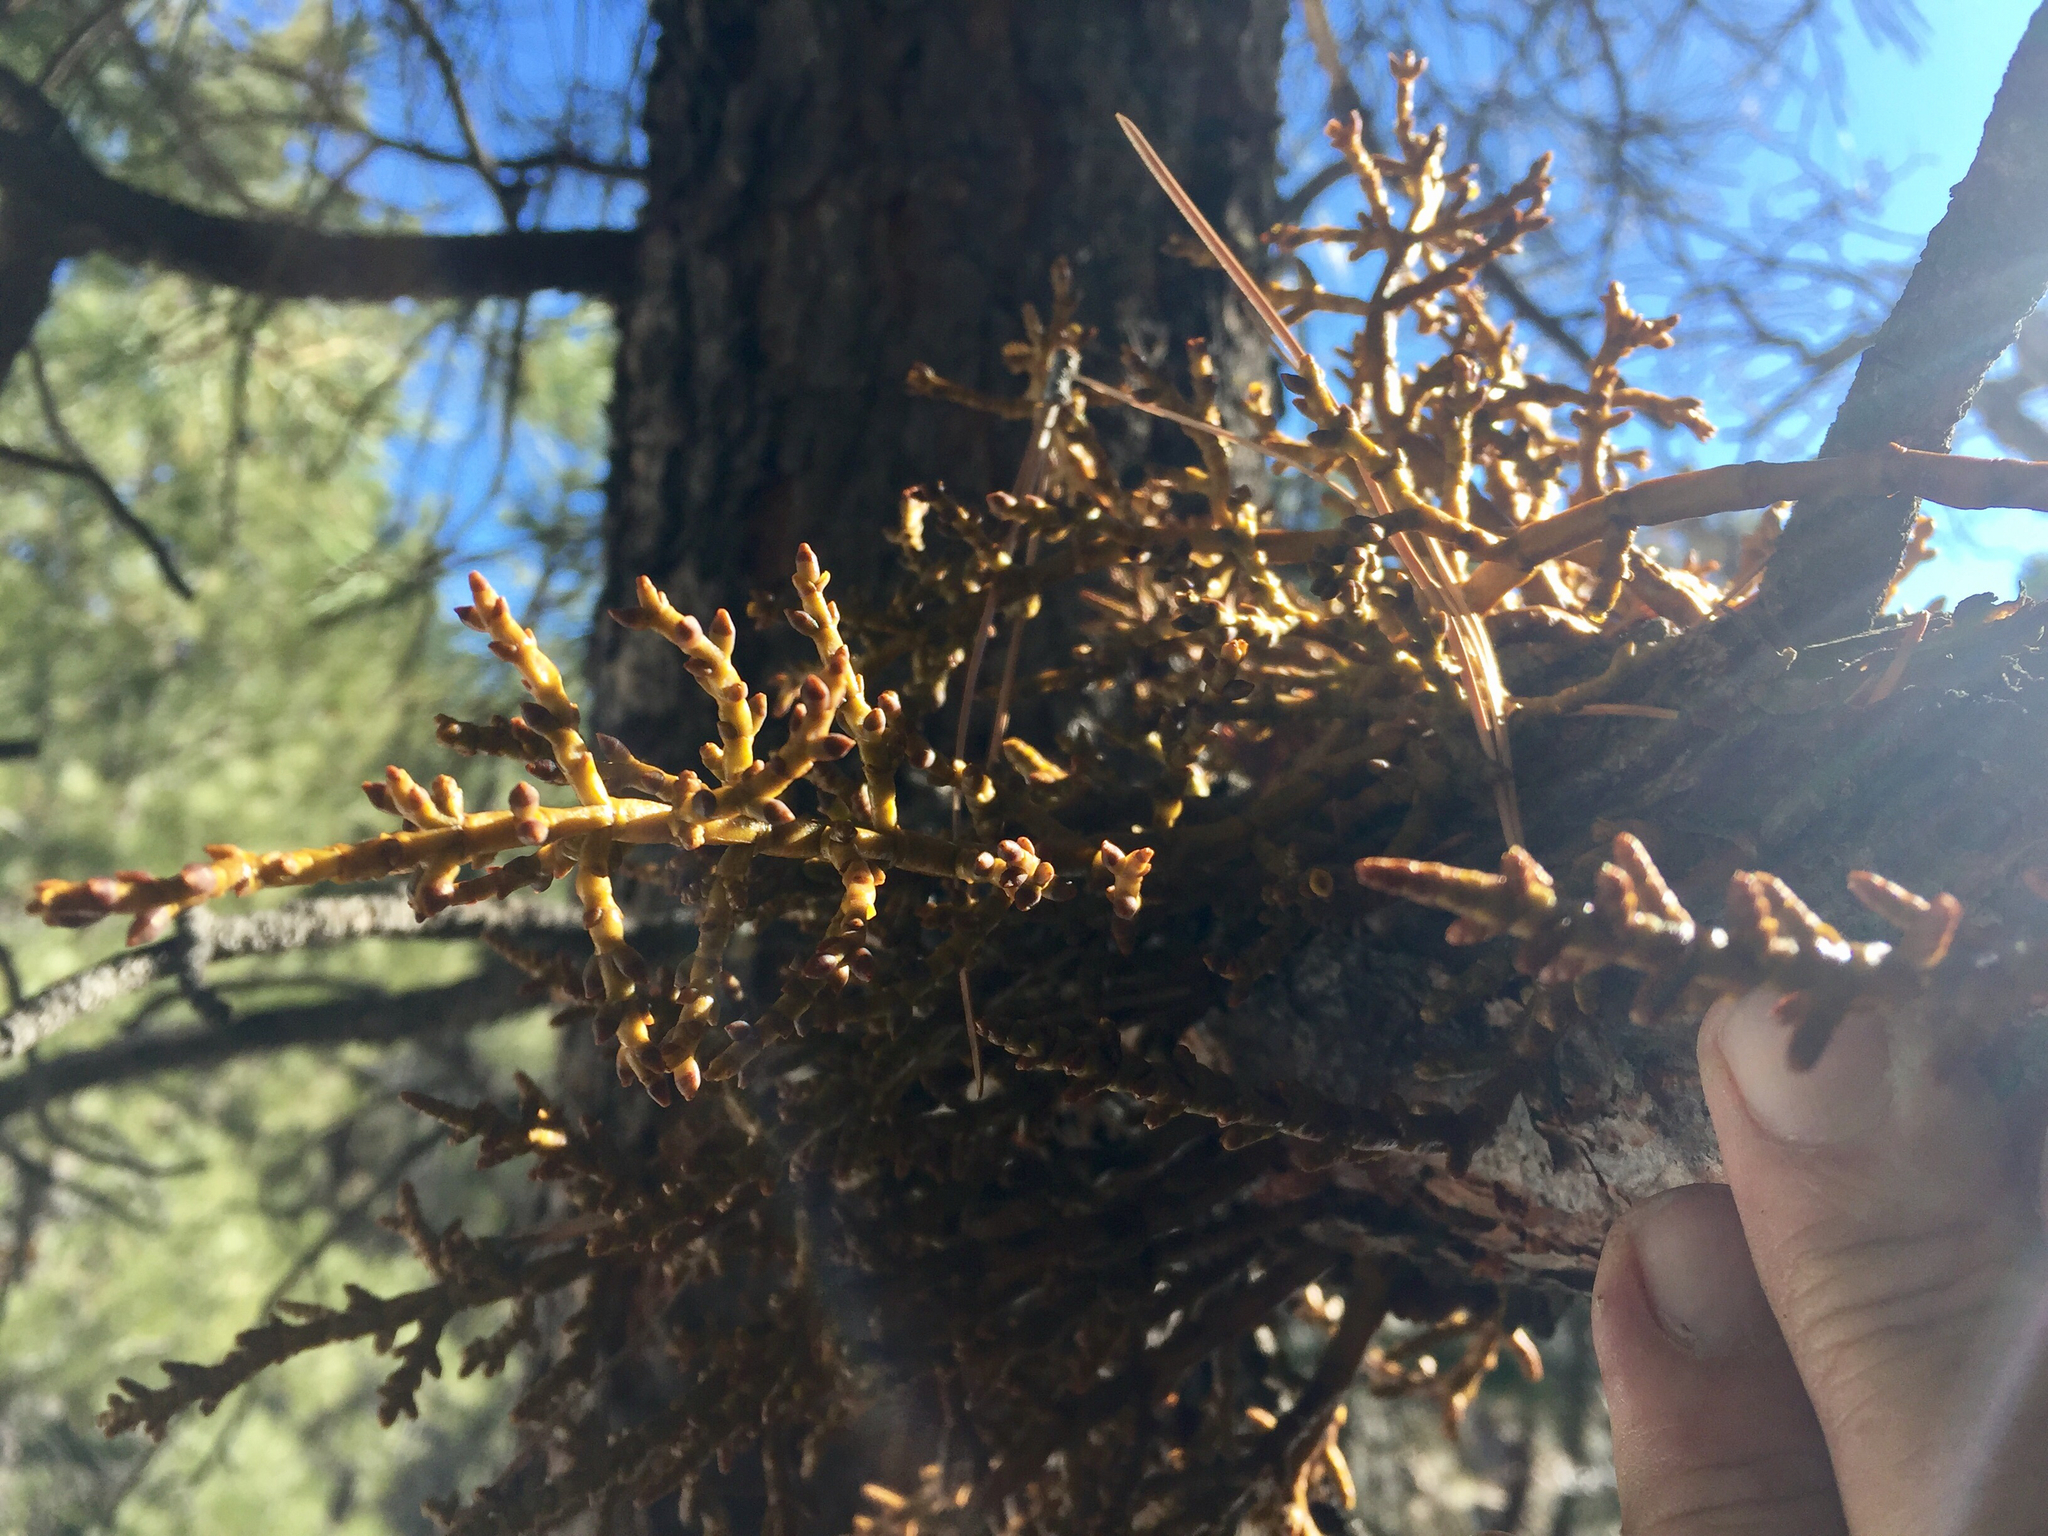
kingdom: Plantae
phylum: Tracheophyta
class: Magnoliopsida
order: Santalales
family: Viscaceae
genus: Arceuthobium
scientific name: Arceuthobium vaginatum
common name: Southwestern dwarf-mistletoe
